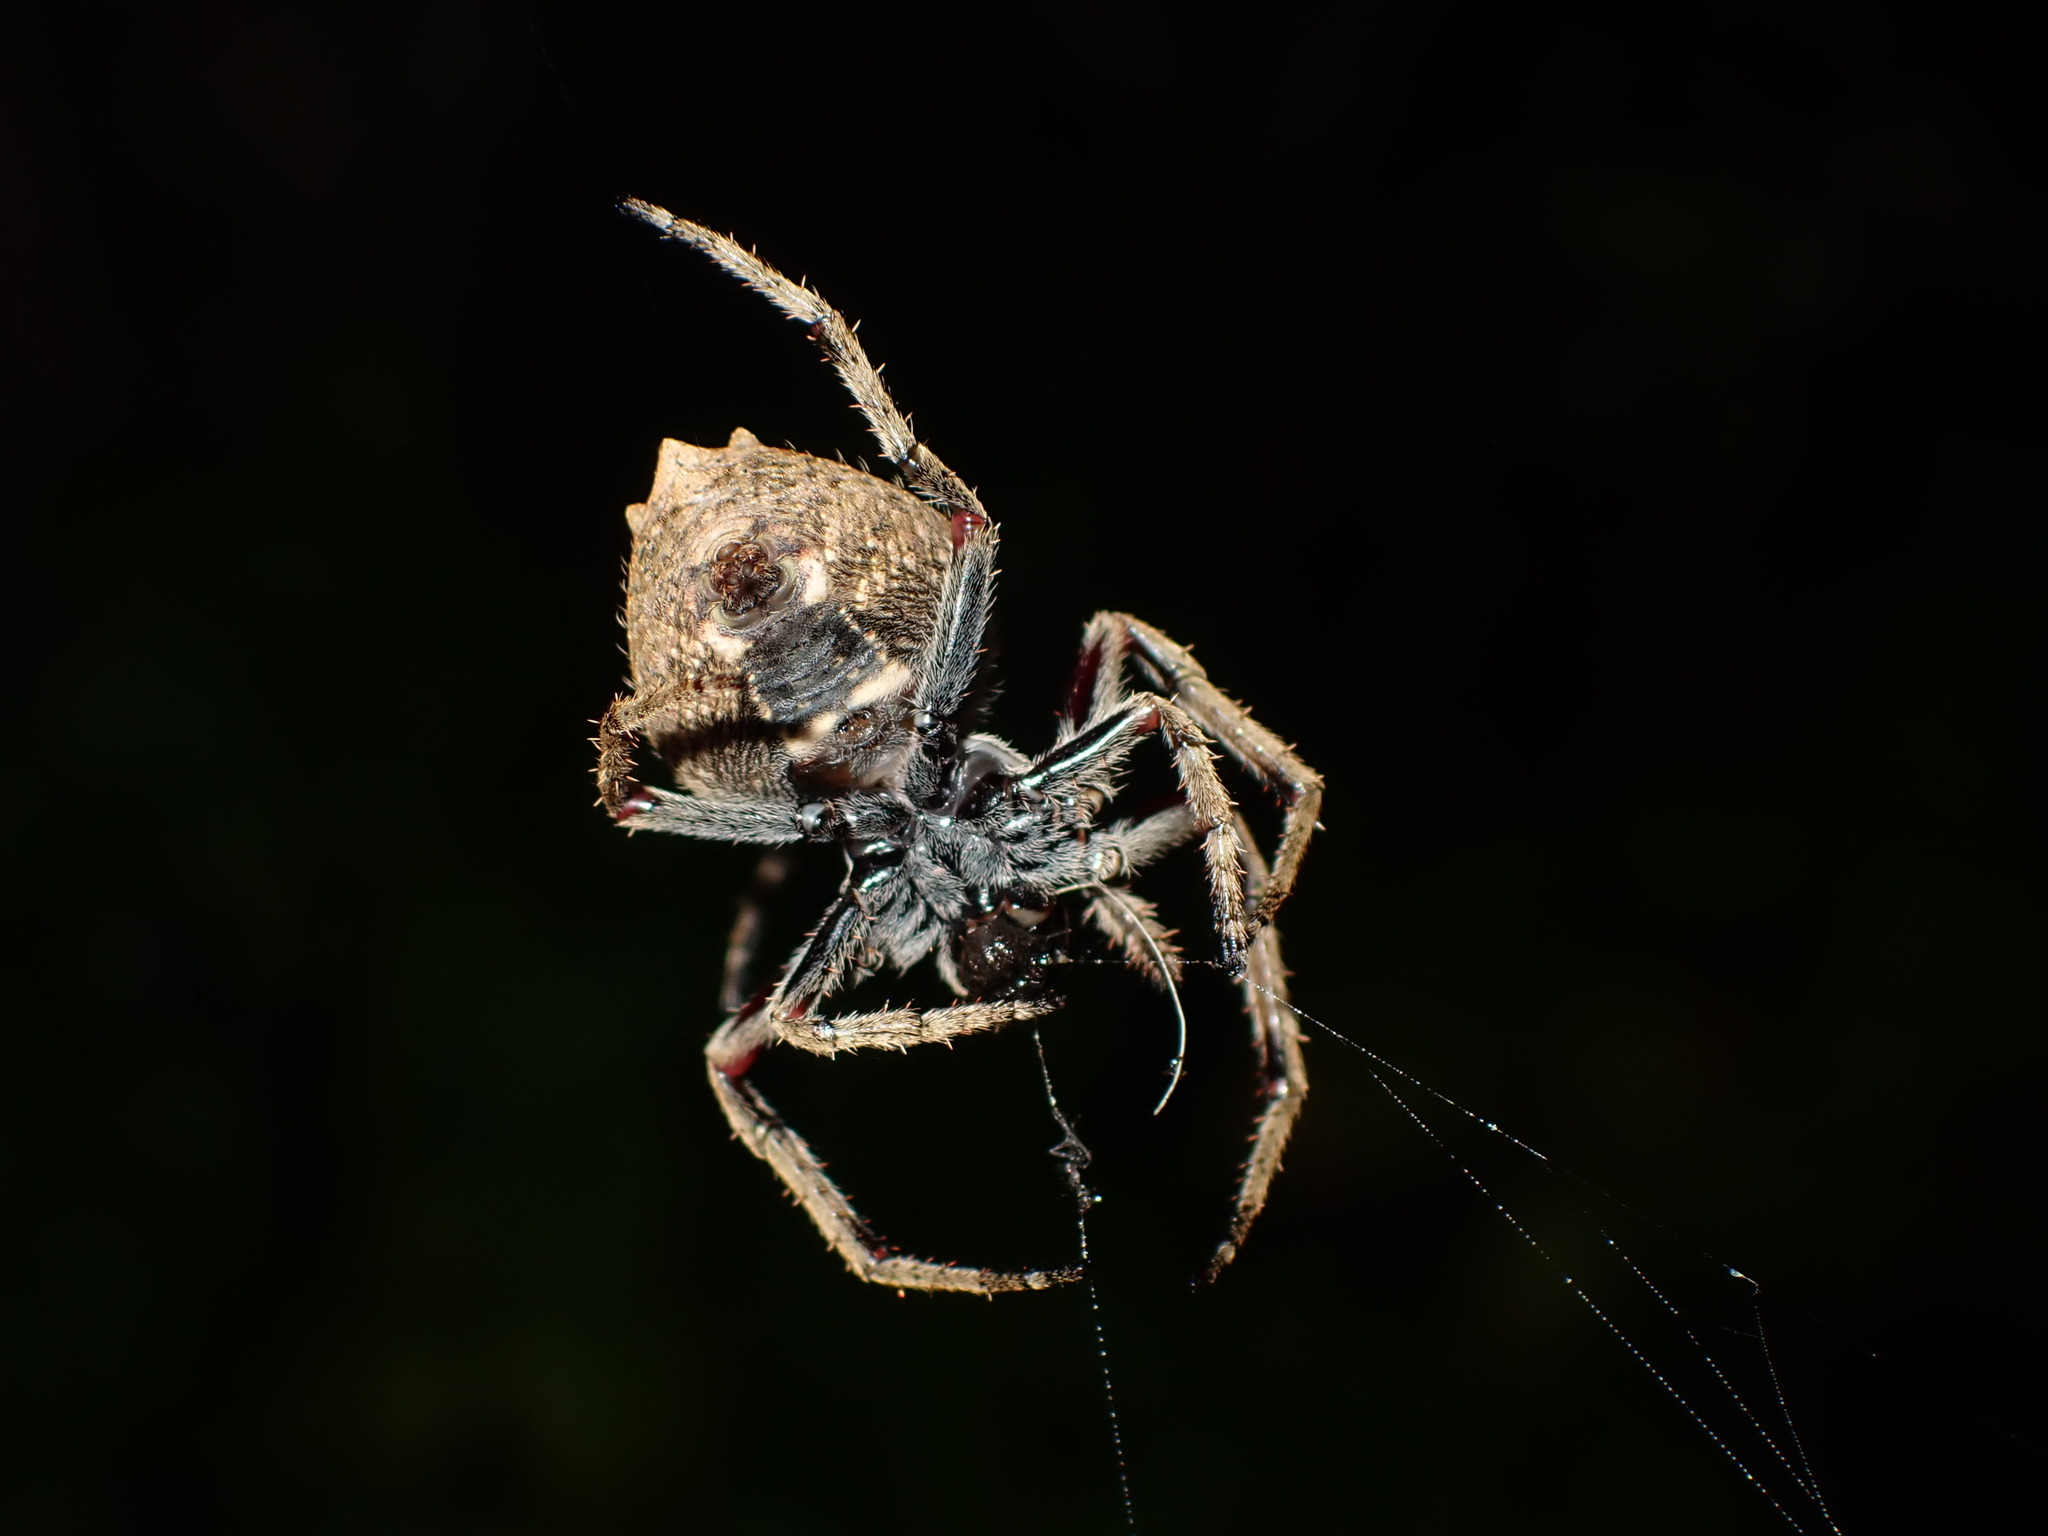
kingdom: Animalia
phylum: Arthropoda
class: Arachnida
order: Araneae
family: Araneidae
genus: Eriophora
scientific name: Eriophora pustulosa
